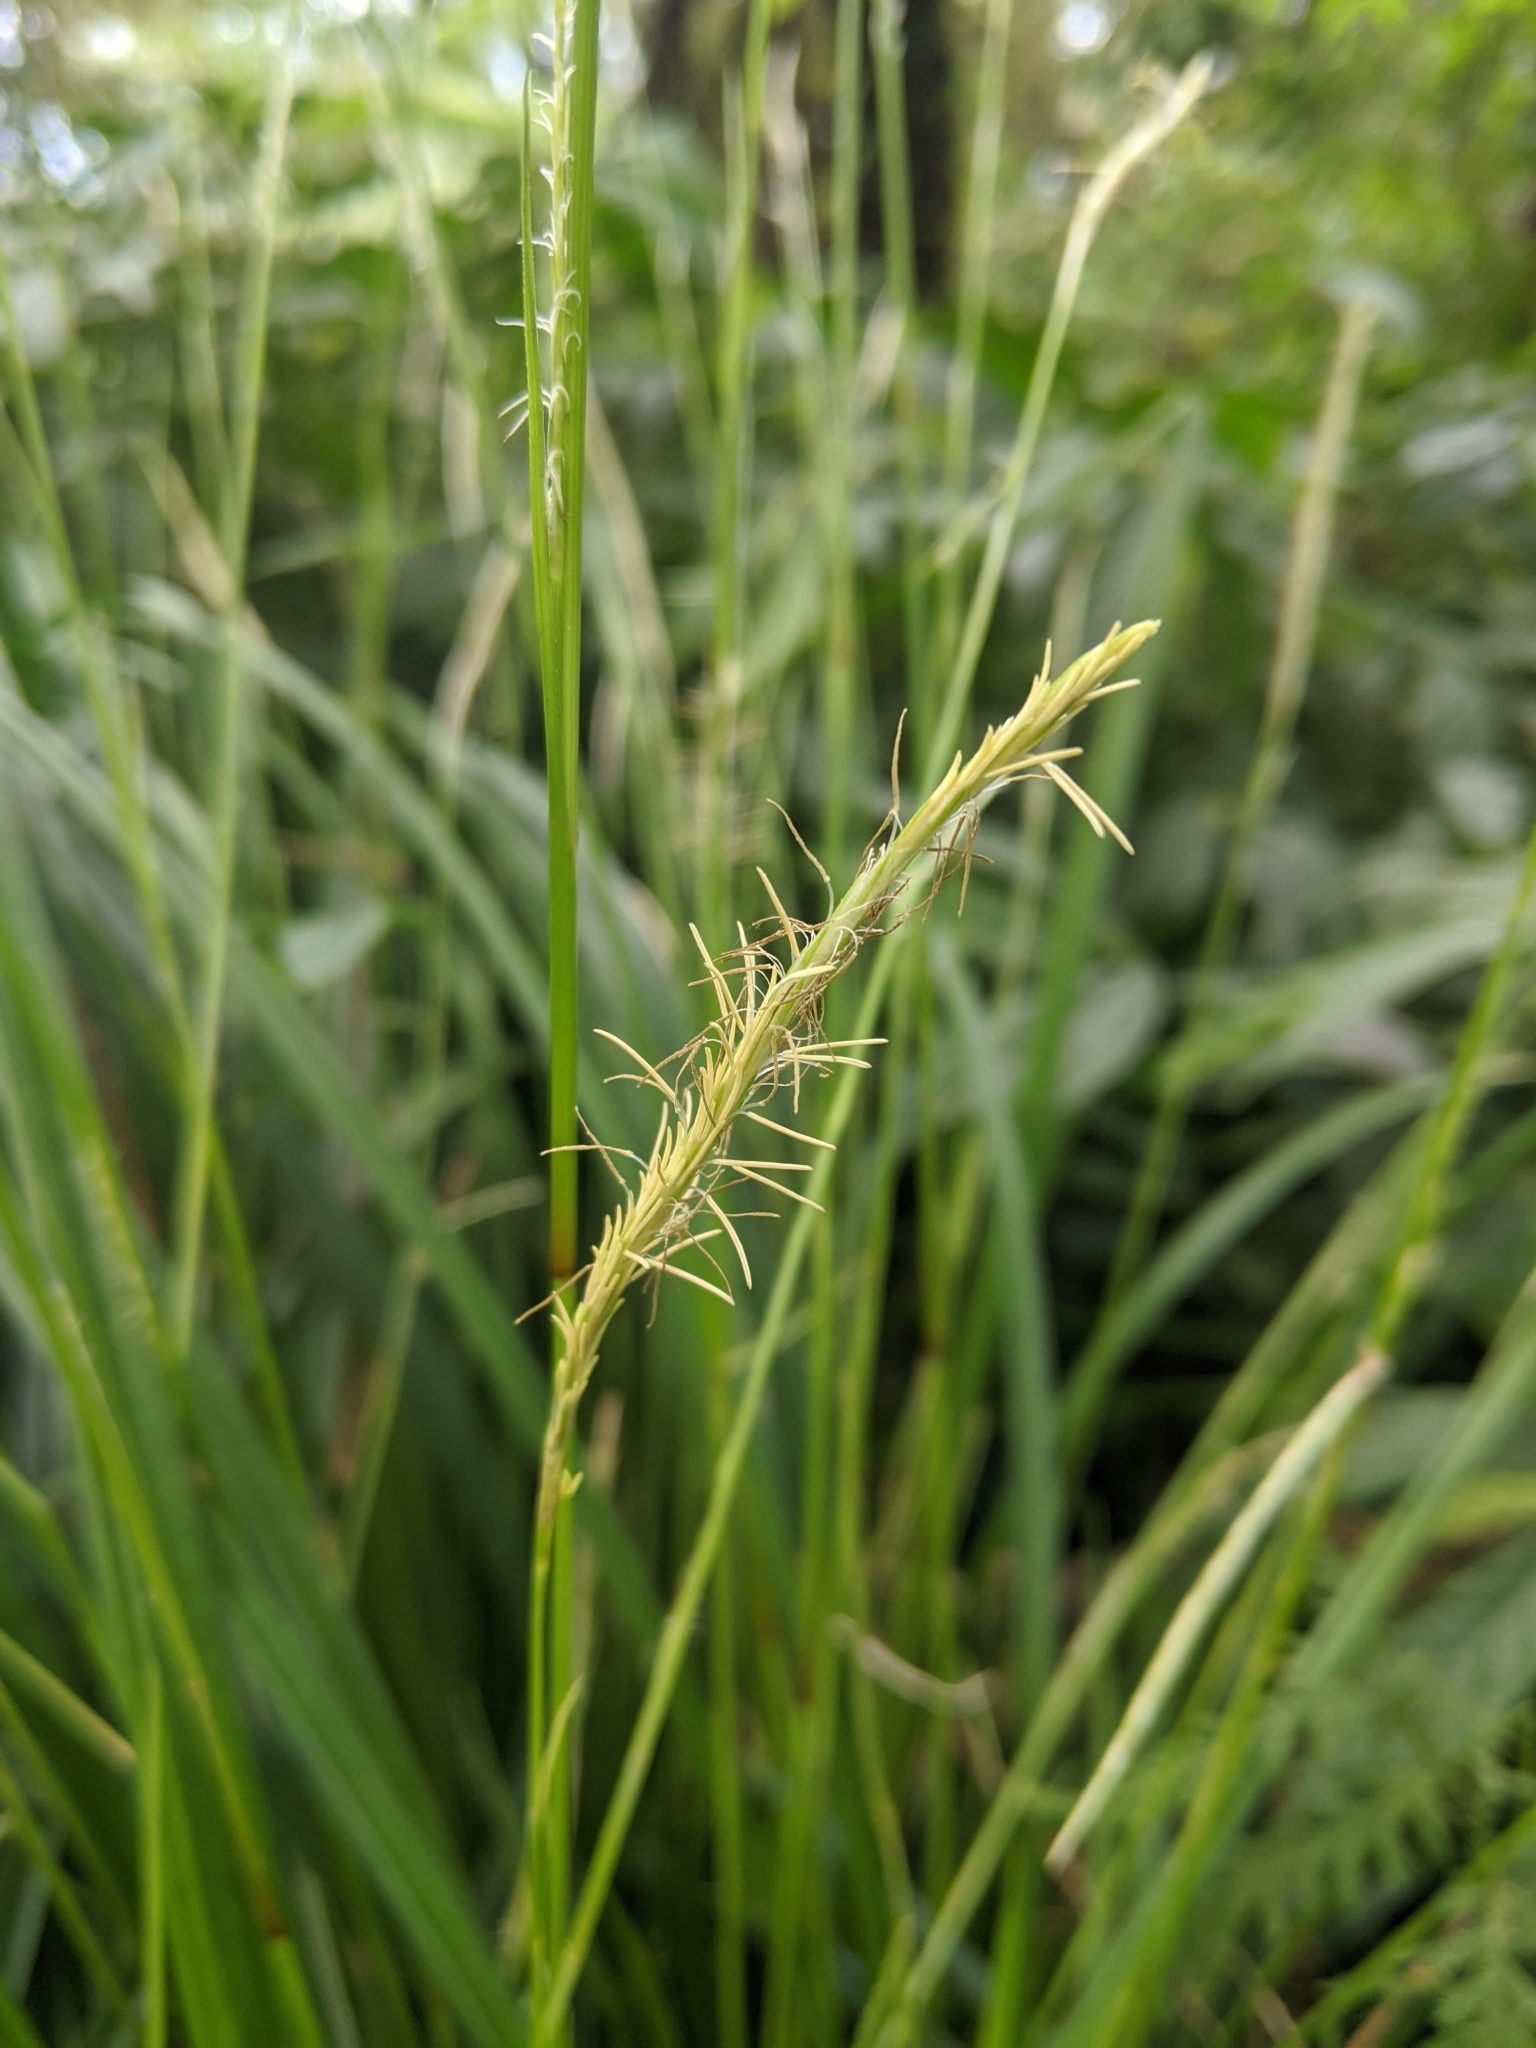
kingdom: Plantae
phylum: Tracheophyta
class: Liliopsida
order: Poales
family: Cyperaceae
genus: Carex
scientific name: Carex dolichostachya
